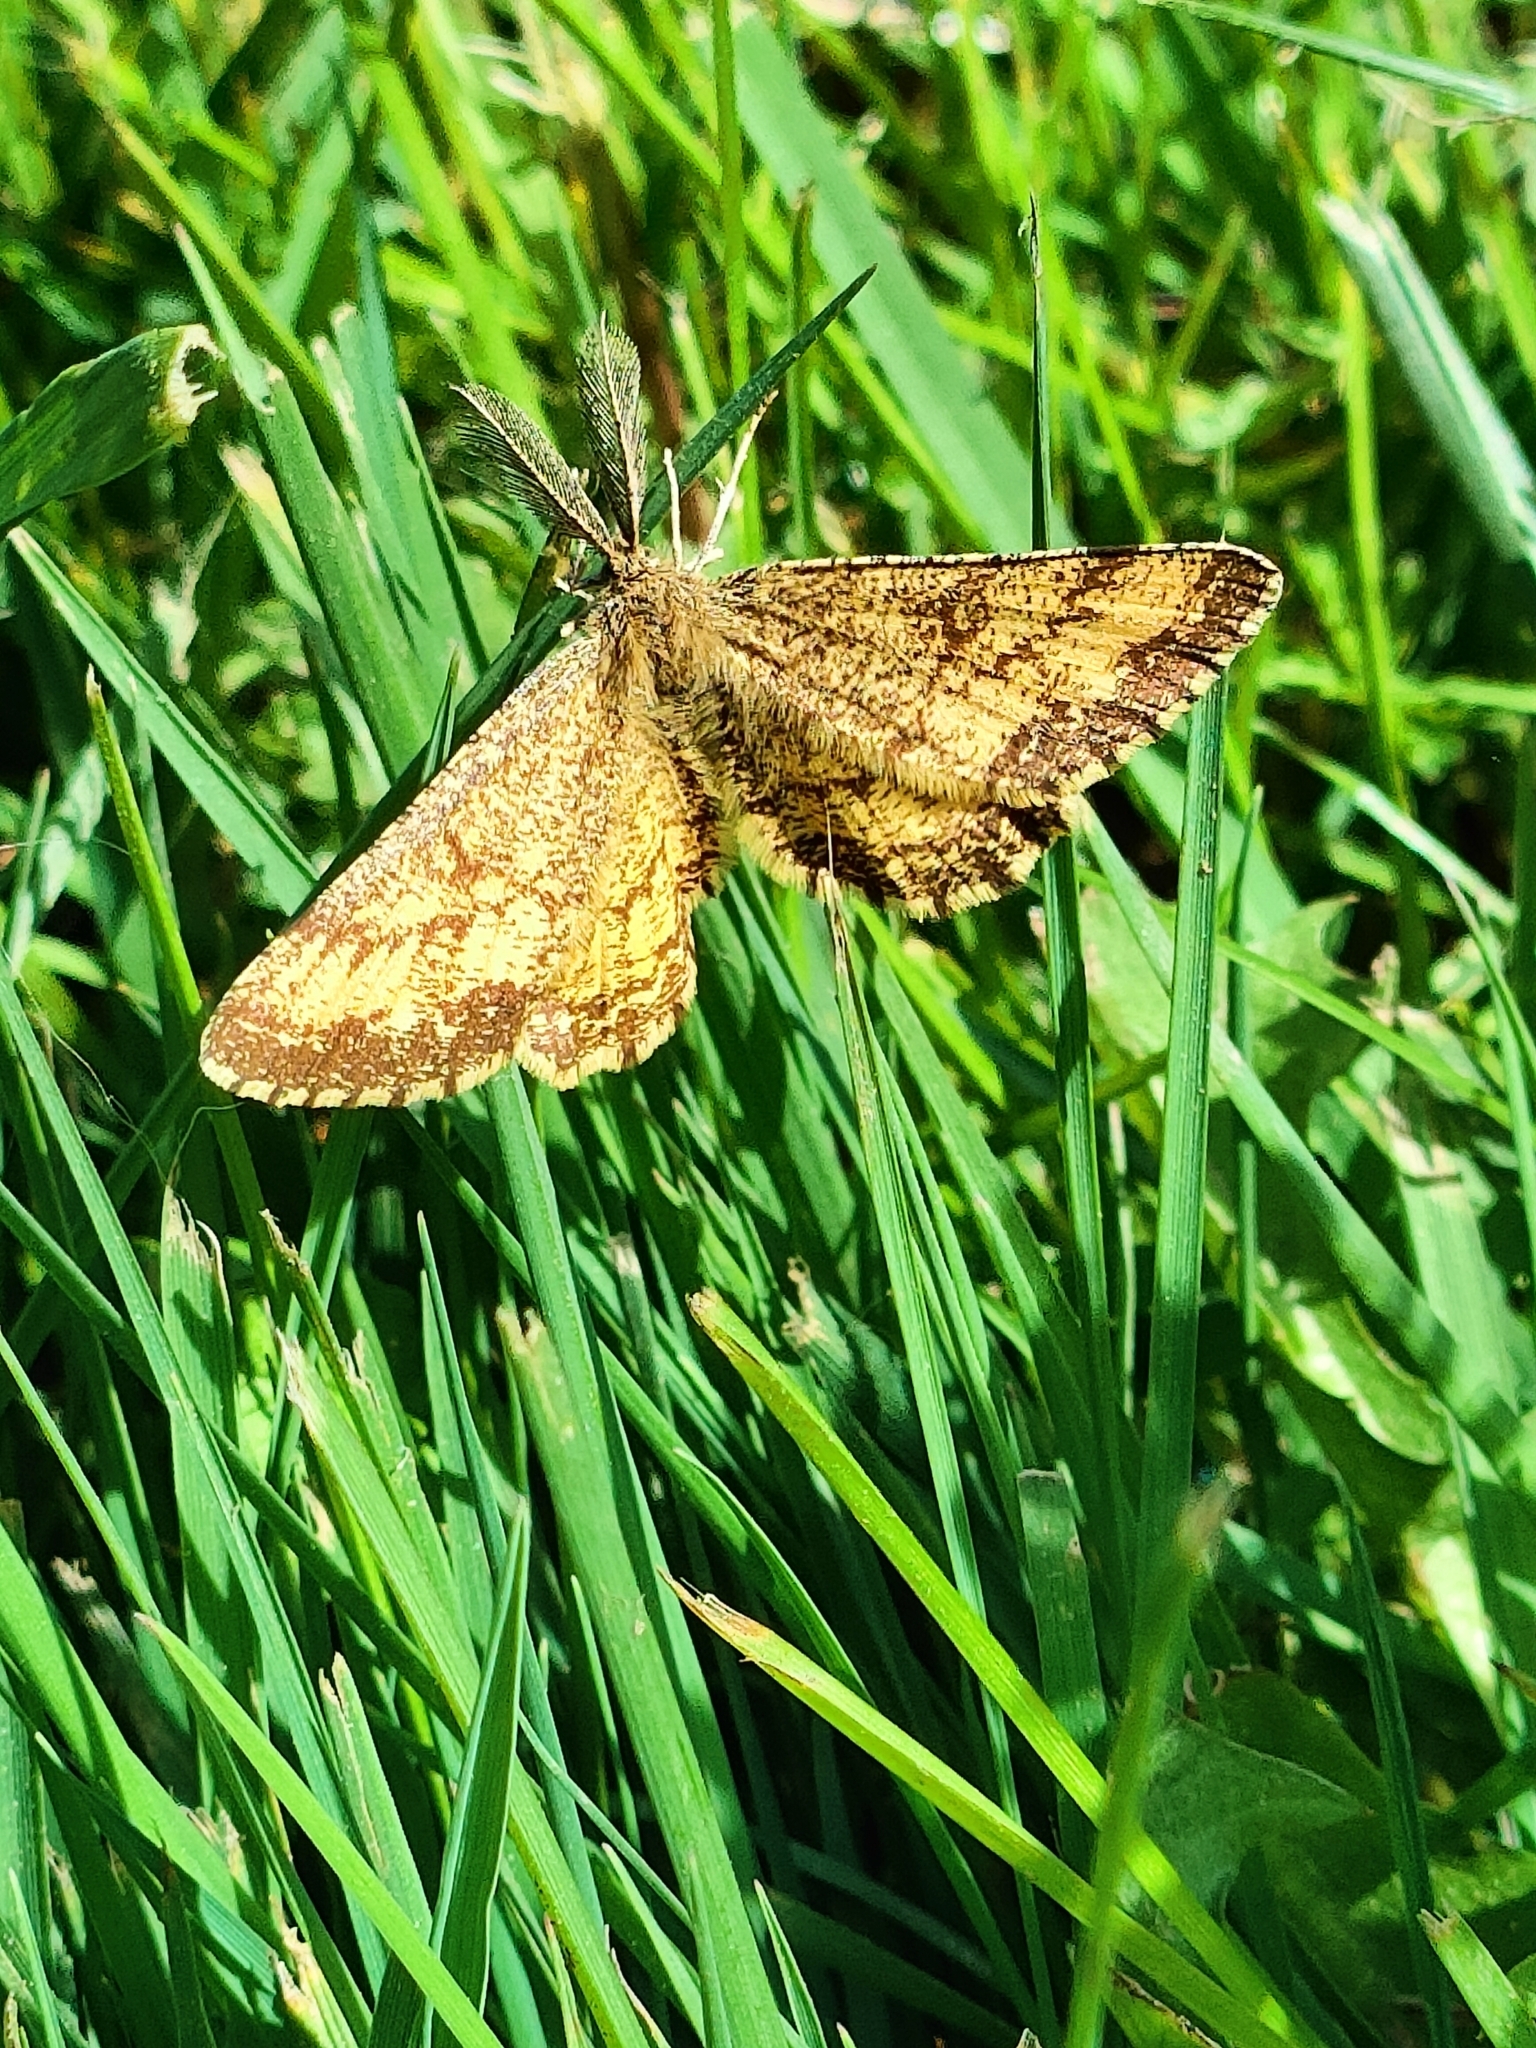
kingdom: Animalia
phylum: Arthropoda
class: Insecta
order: Lepidoptera
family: Geometridae
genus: Ematurga
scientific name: Ematurga atomaria
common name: Common heath
